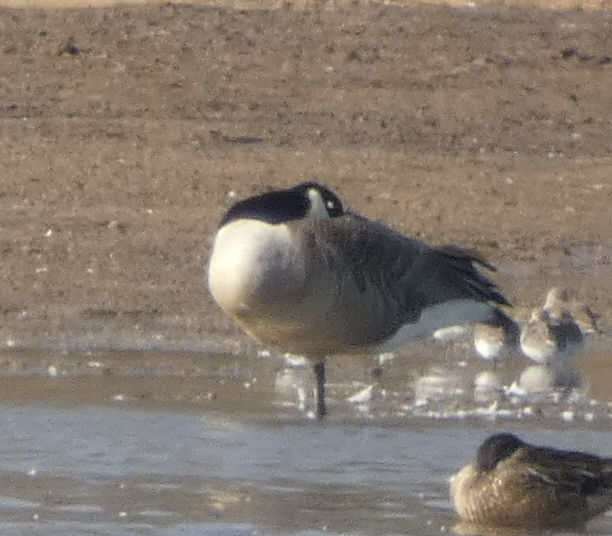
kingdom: Animalia
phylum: Chordata
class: Aves
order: Anseriformes
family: Anatidae
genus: Branta
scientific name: Branta canadensis
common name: Canada goose
